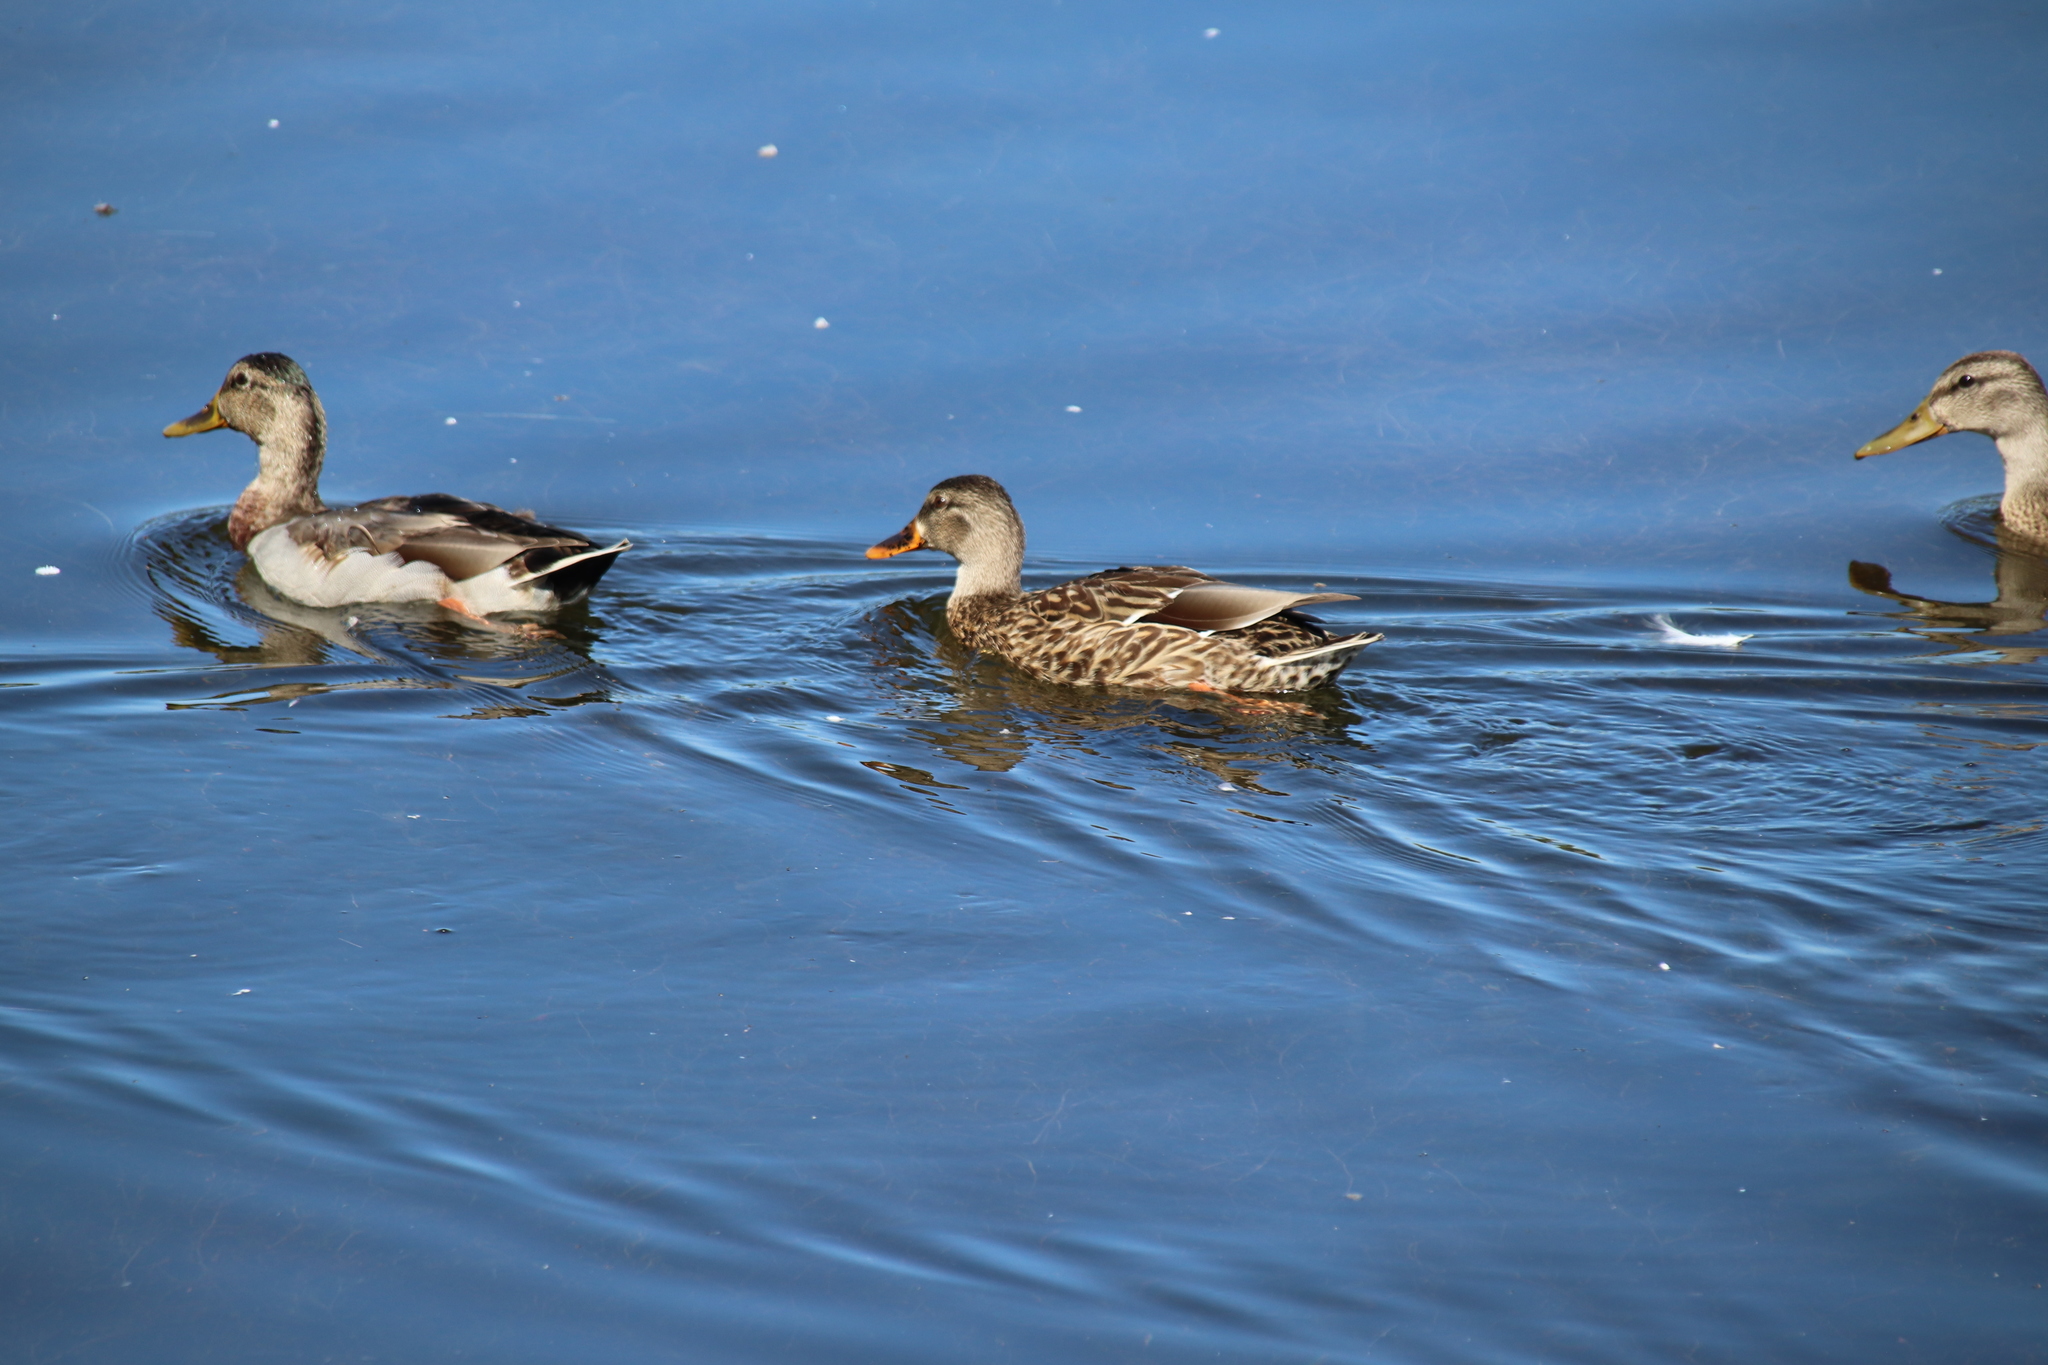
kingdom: Animalia
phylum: Chordata
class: Aves
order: Anseriformes
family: Anatidae
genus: Anas
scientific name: Anas platyrhynchos
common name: Mallard
